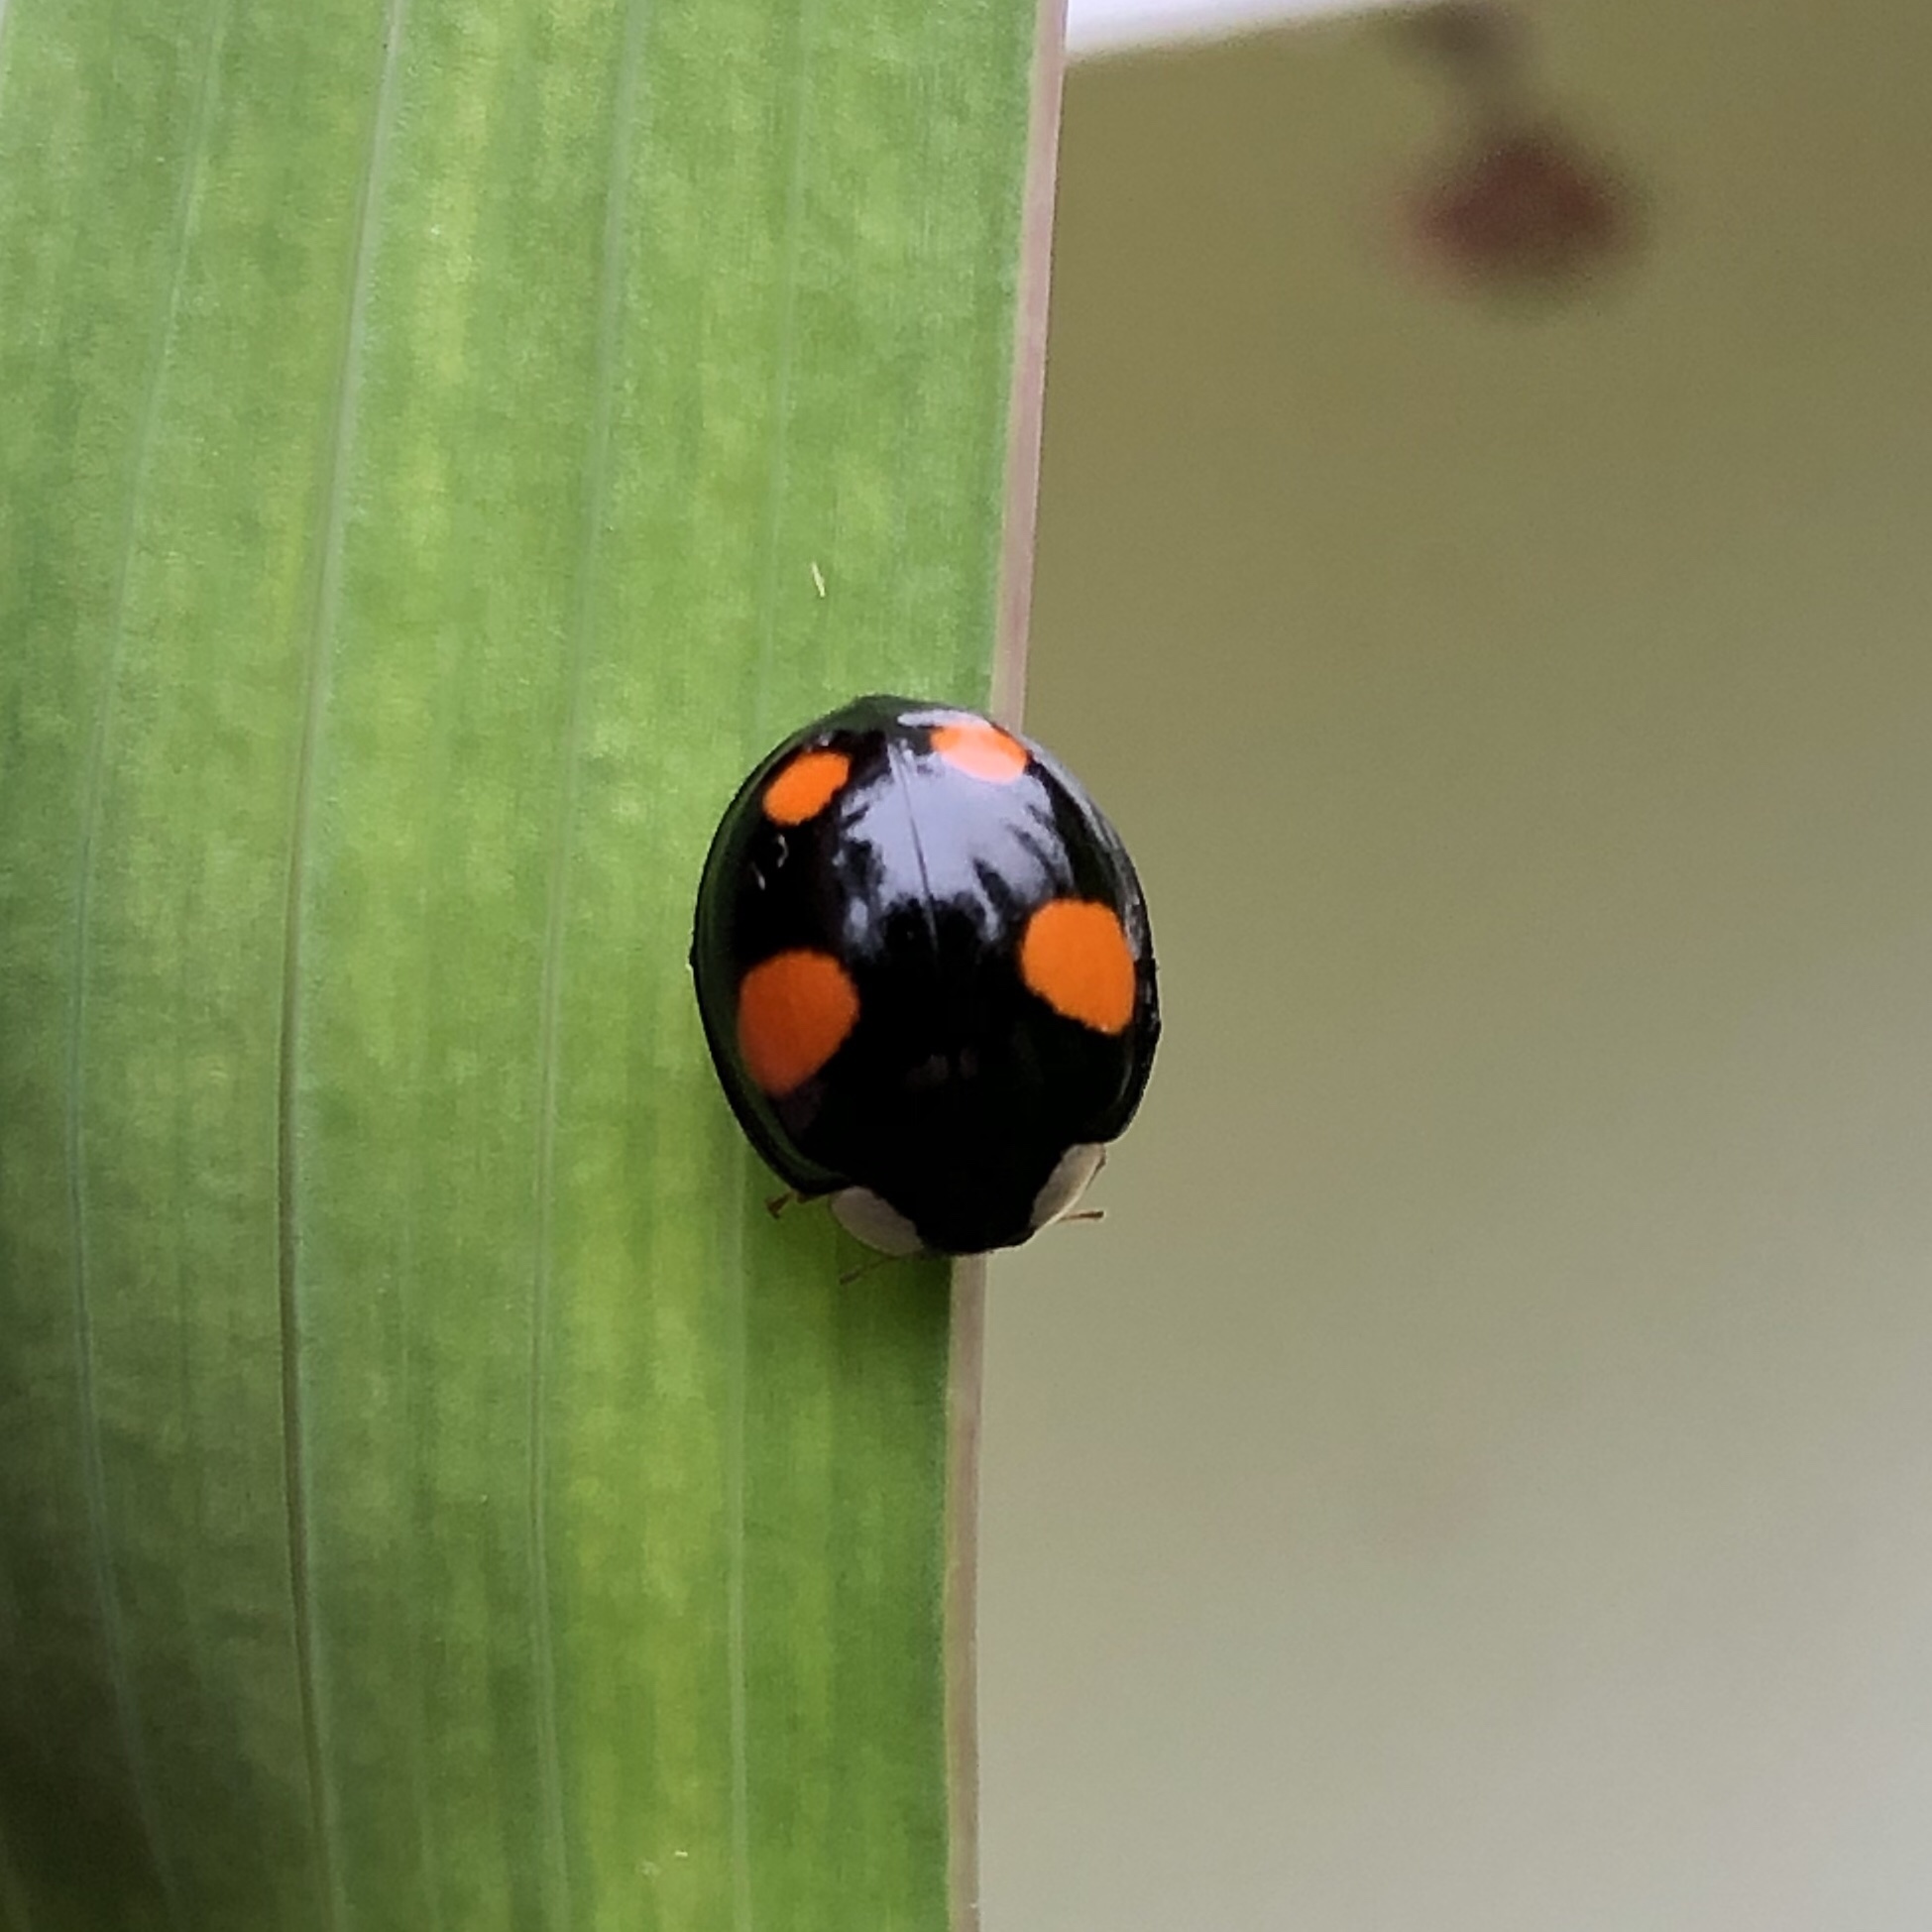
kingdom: Animalia
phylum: Arthropoda
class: Insecta
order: Coleoptera
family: Coccinellidae
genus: Harmonia
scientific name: Harmonia axyridis
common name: Harlequin ladybird
